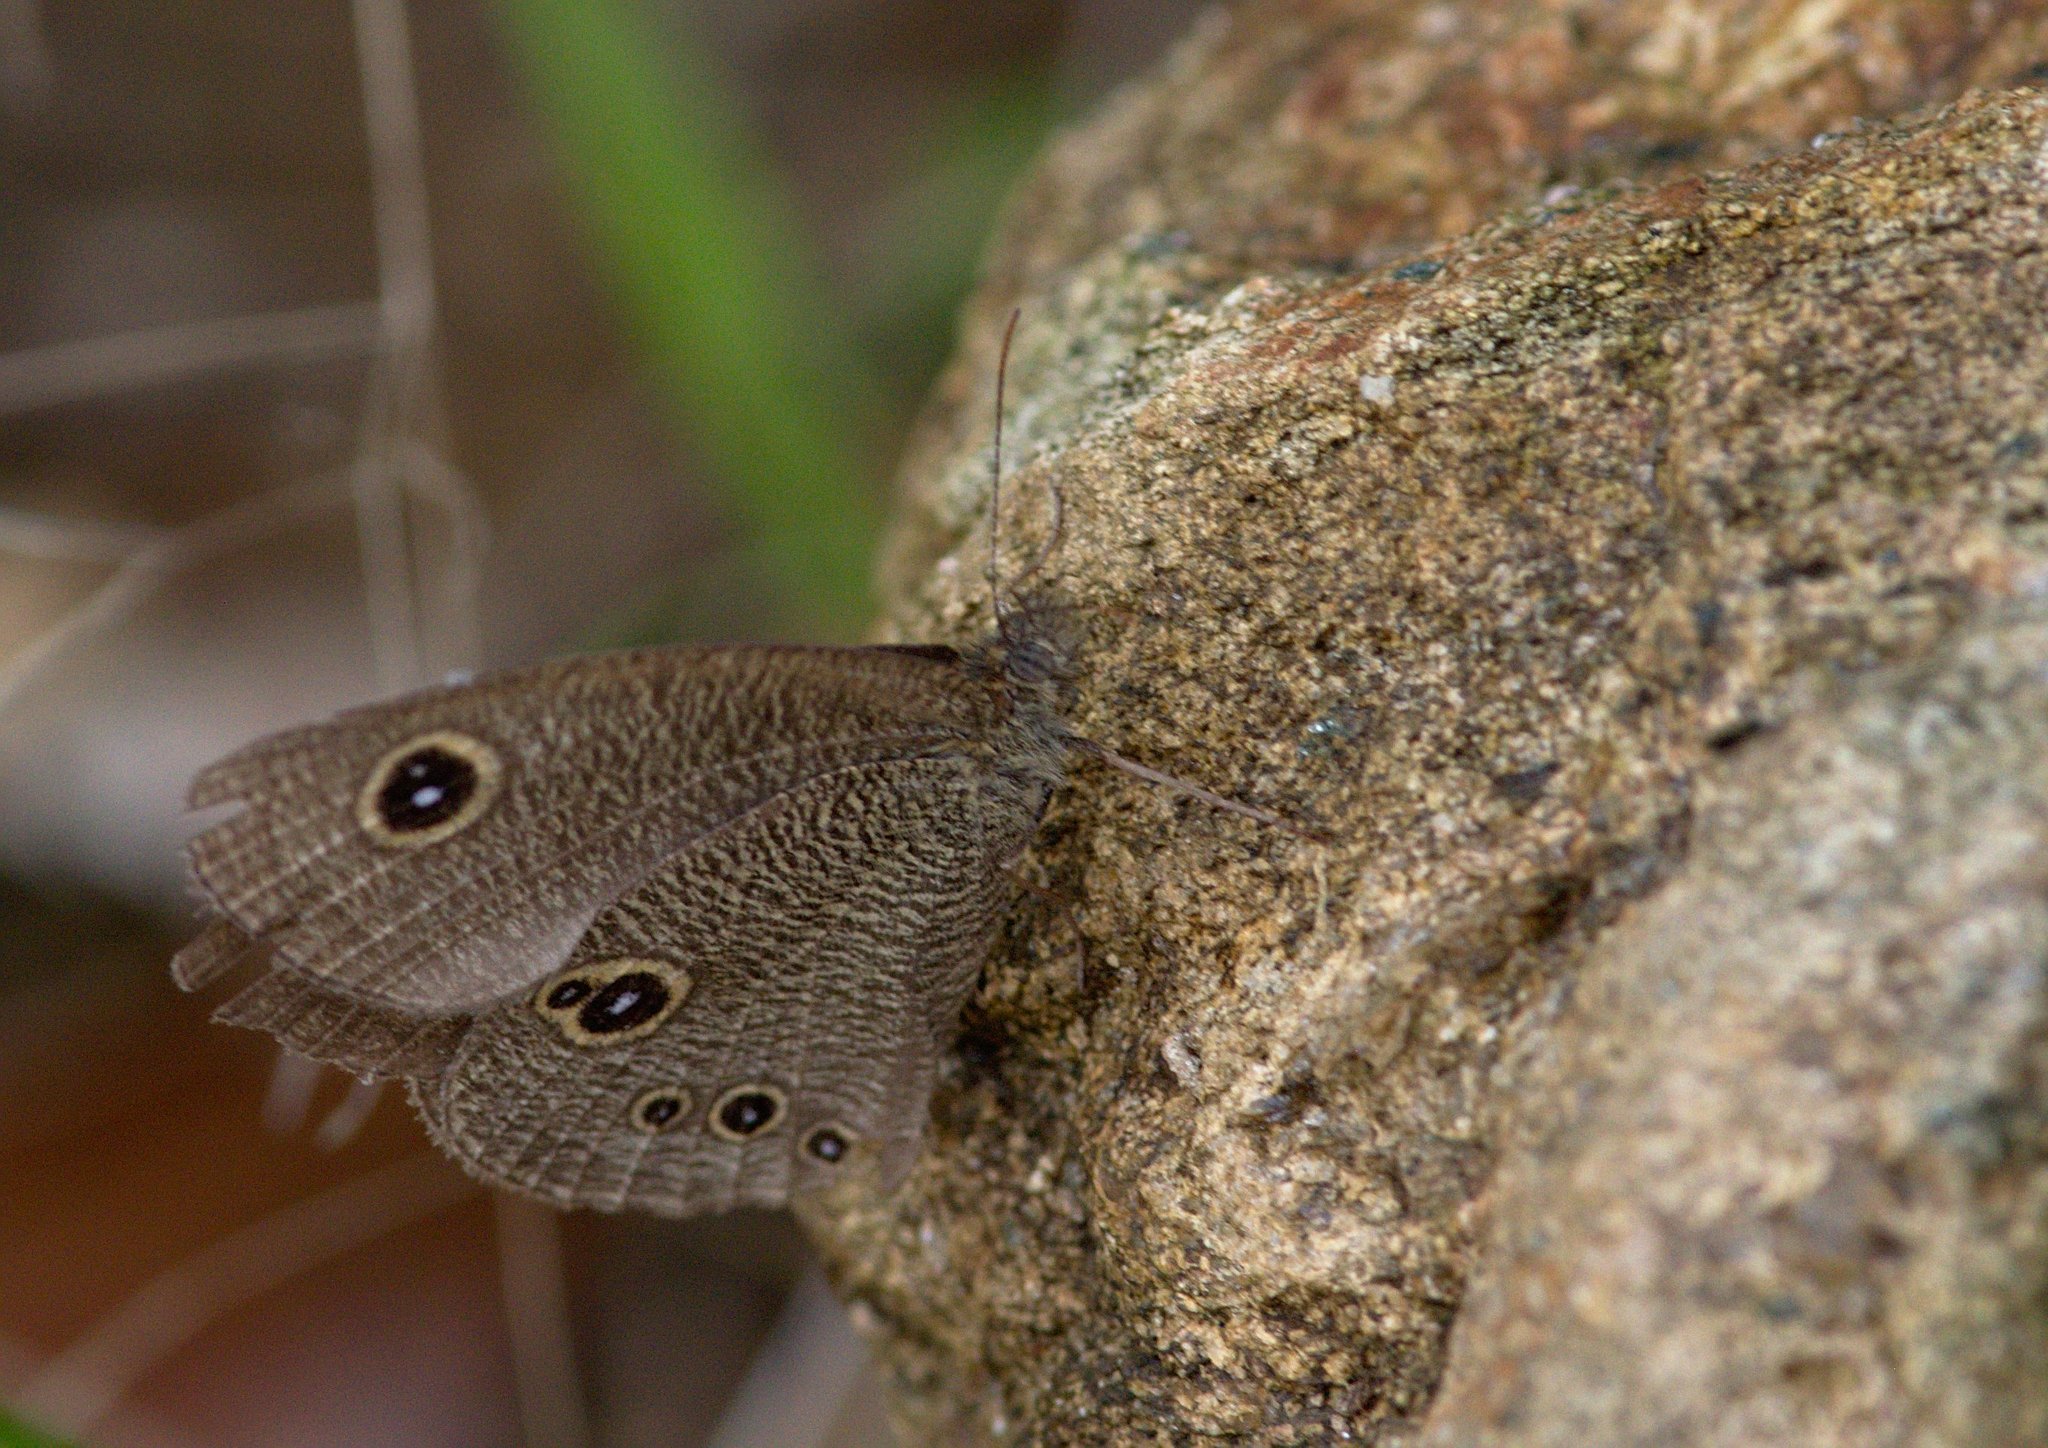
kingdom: Animalia
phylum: Arthropoda
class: Insecta
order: Lepidoptera
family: Nymphalidae
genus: Ypthima
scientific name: Ypthima nikaea
